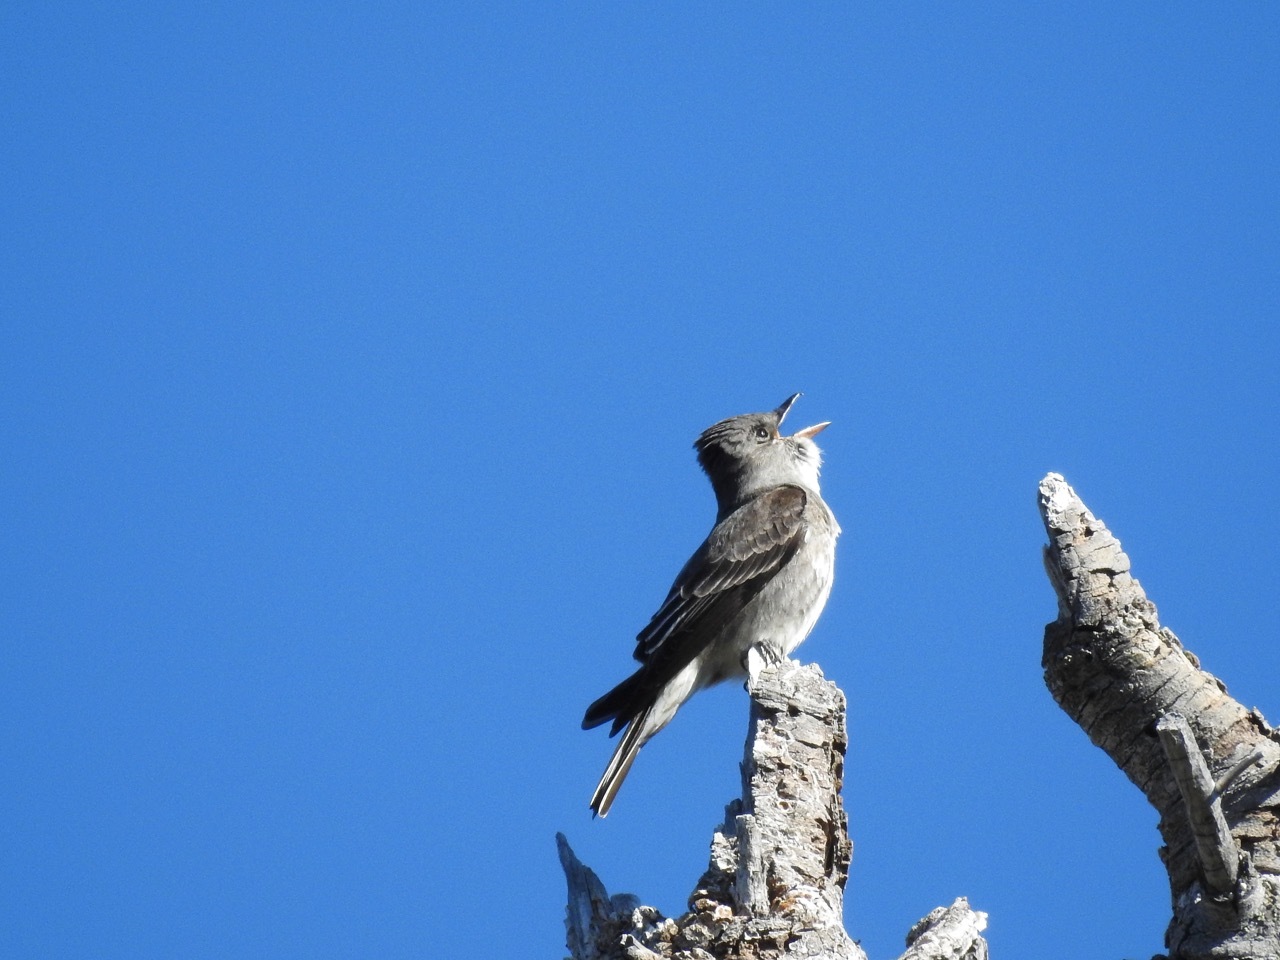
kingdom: Animalia
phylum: Chordata
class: Aves
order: Passeriformes
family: Tyrannidae
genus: Contopus
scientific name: Contopus cooperi
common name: Olive-sided flycatcher
